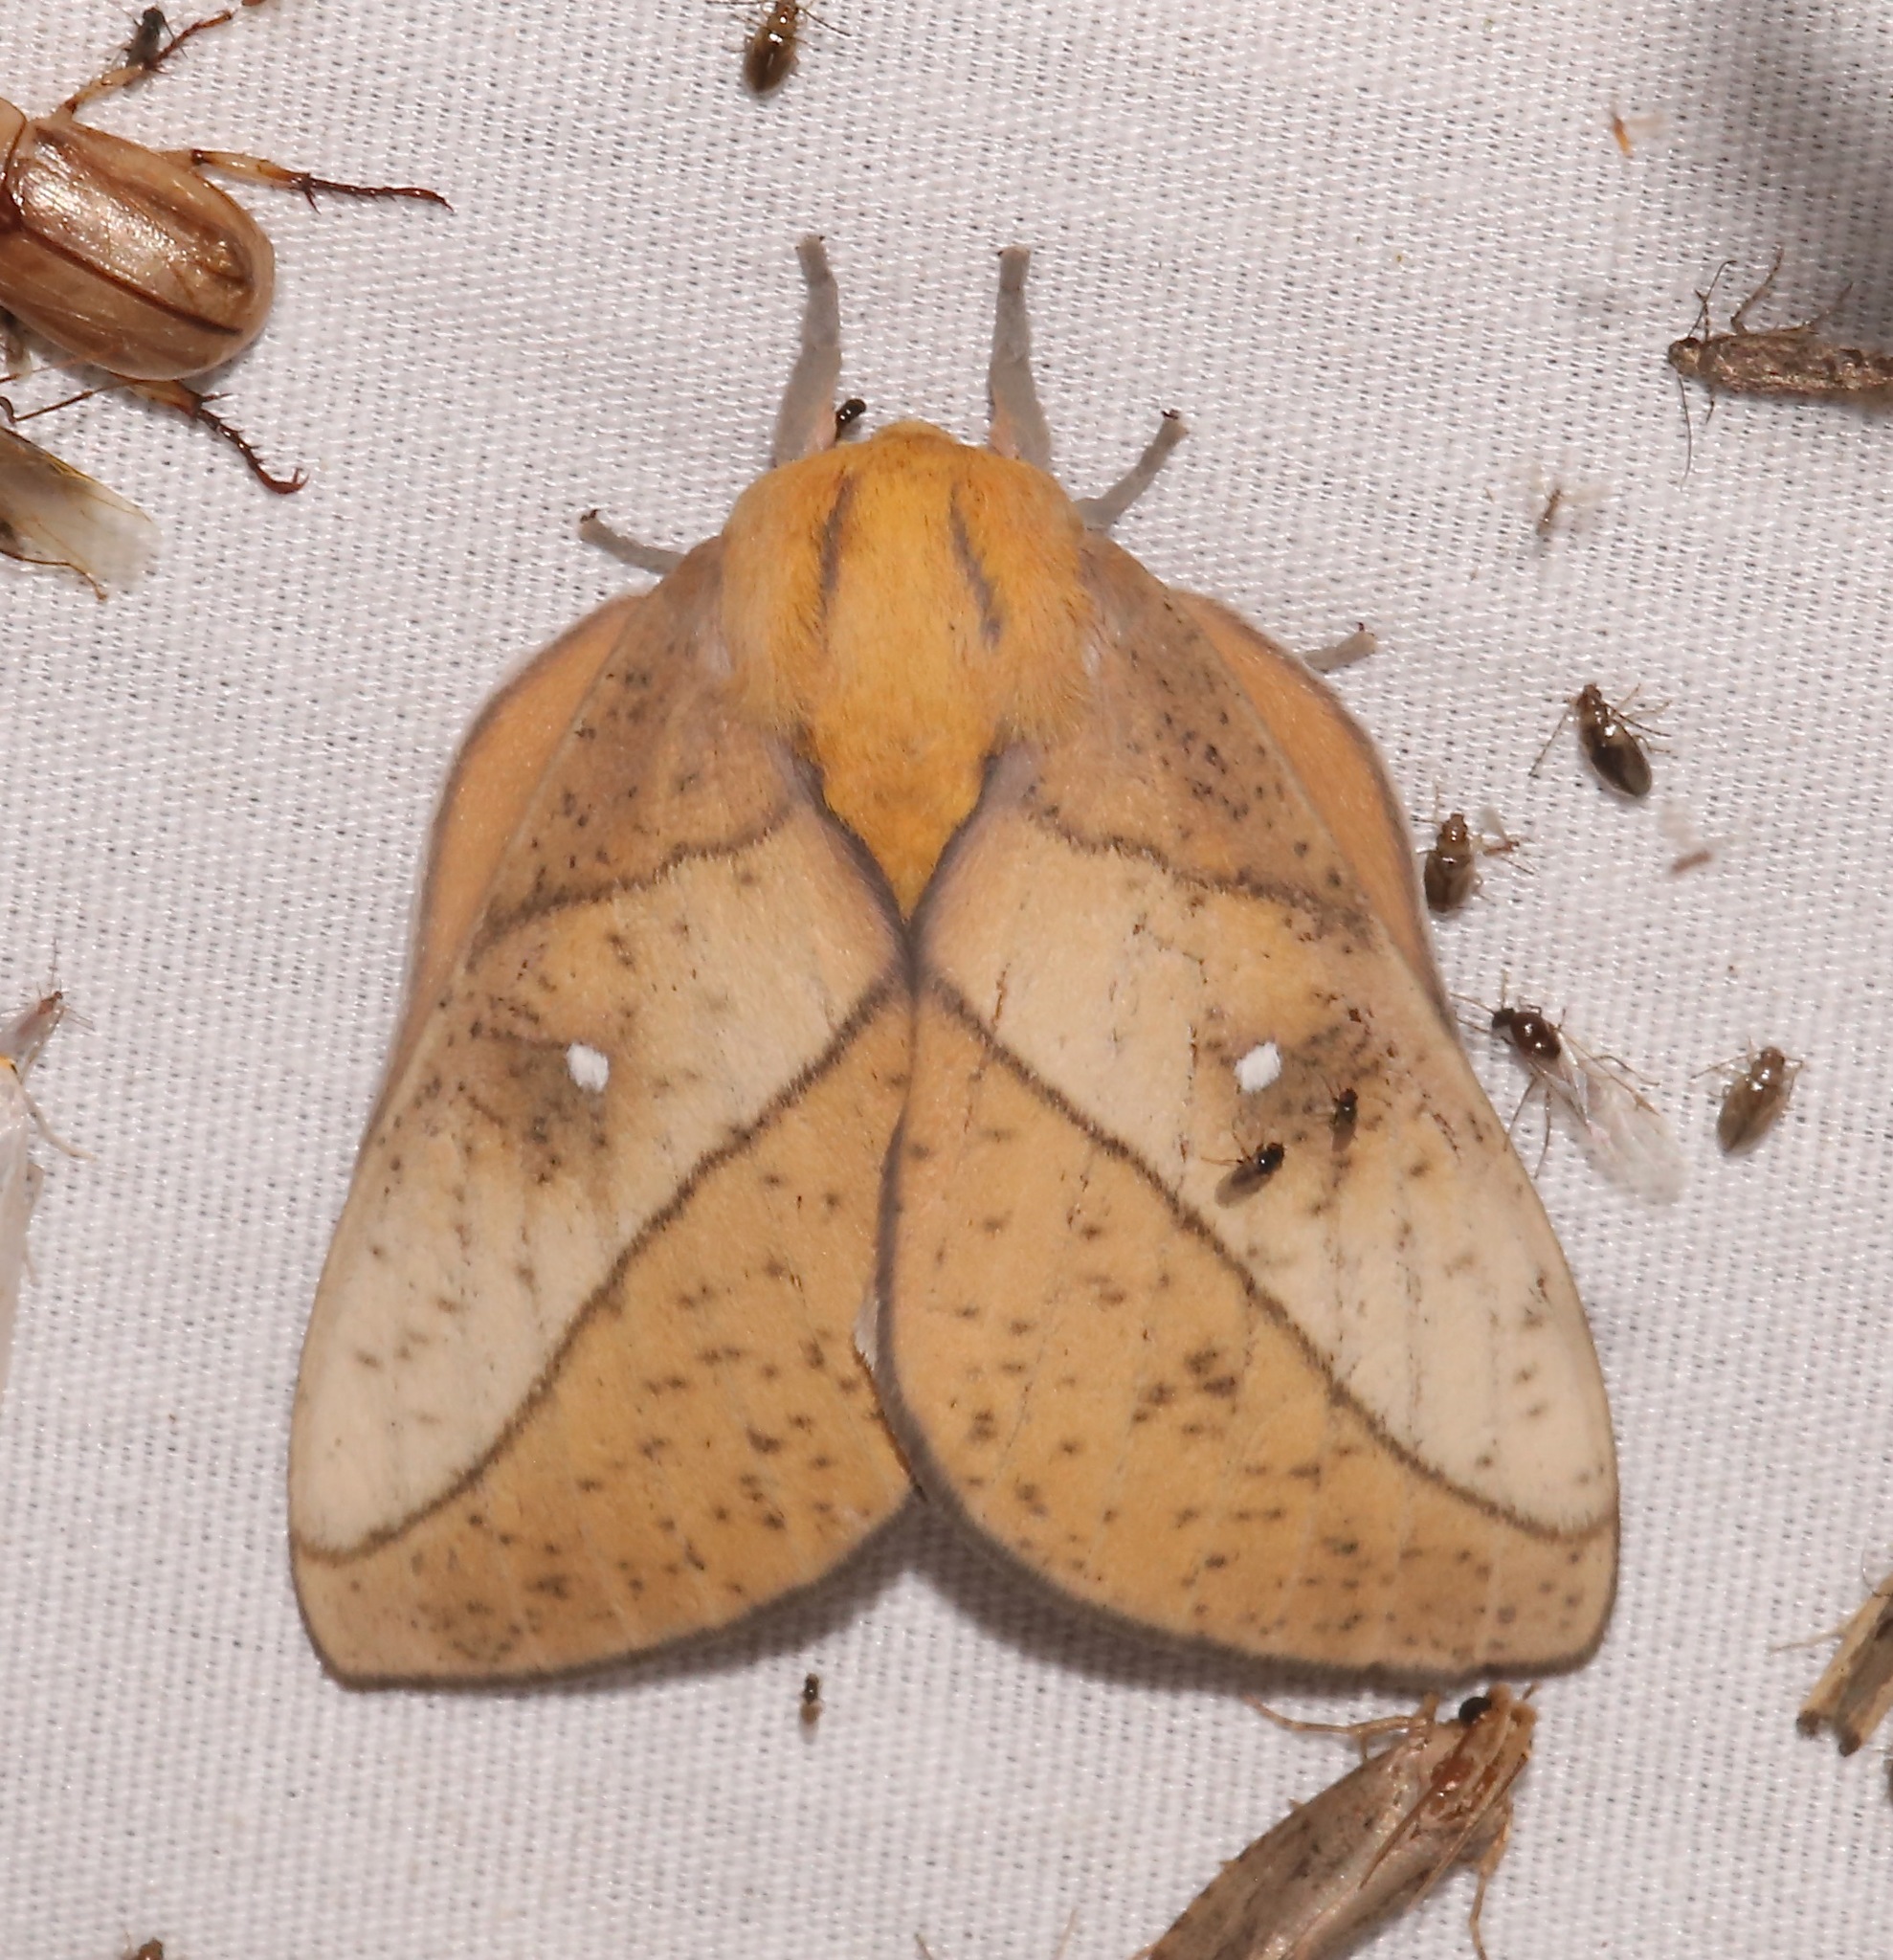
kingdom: Animalia
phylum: Arthropoda
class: Insecta
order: Lepidoptera
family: Saturniidae
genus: Syssphinx
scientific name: Syssphinx montana
